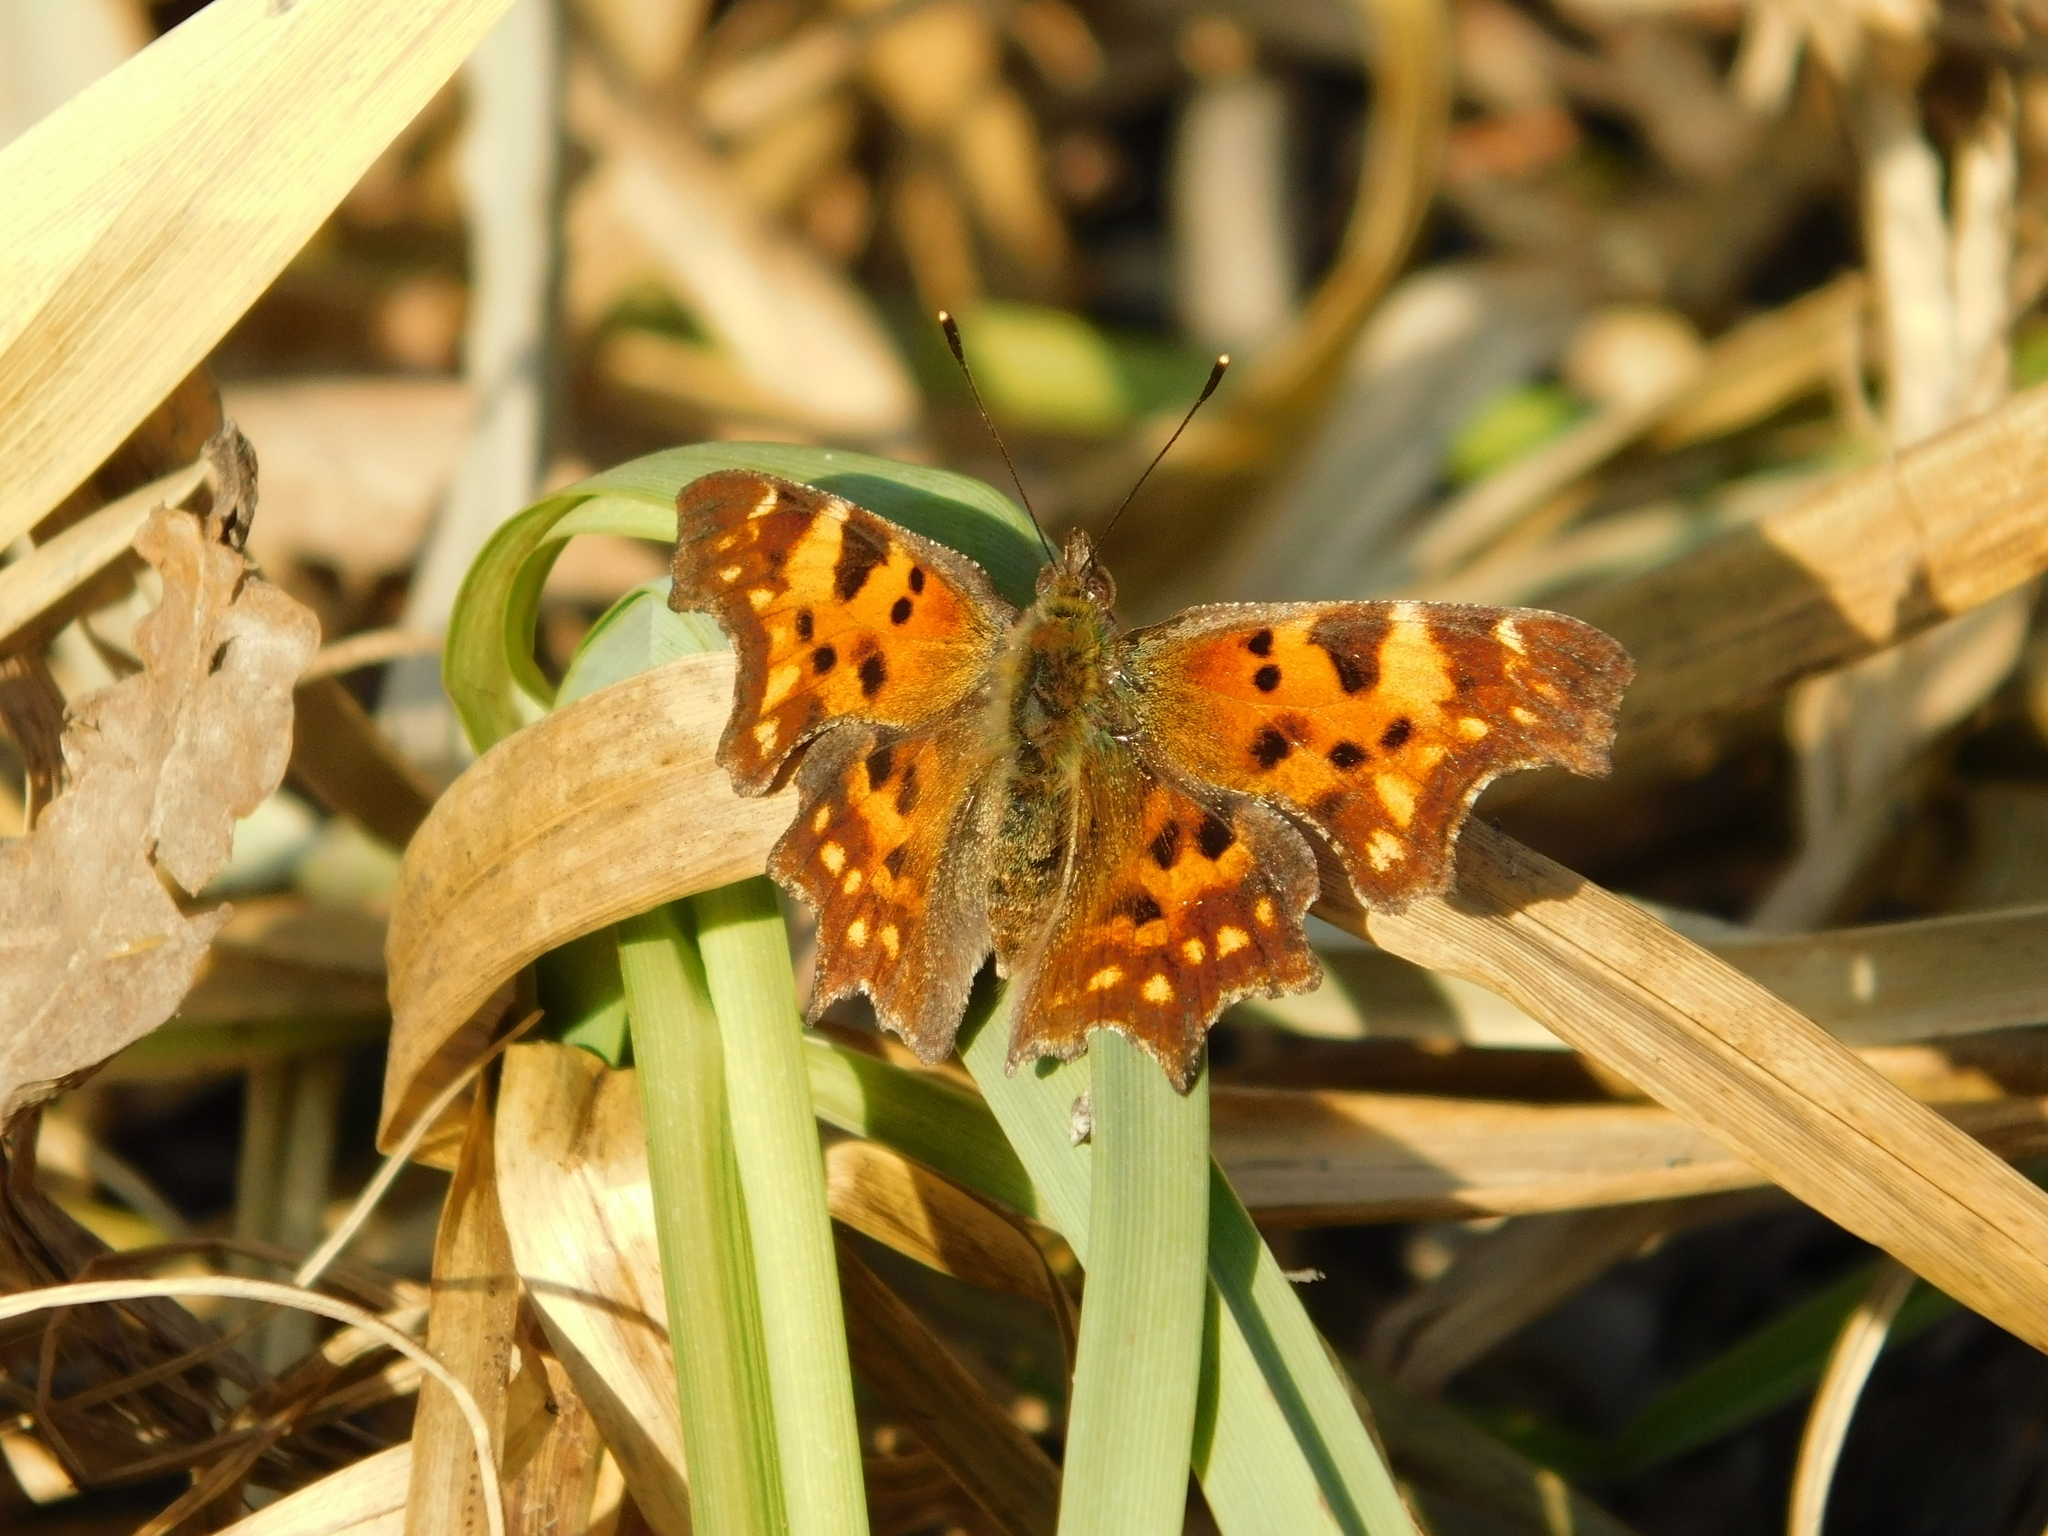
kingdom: Animalia
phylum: Arthropoda
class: Insecta
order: Lepidoptera
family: Nymphalidae
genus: Polygonia
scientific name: Polygonia c-album
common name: Comma
